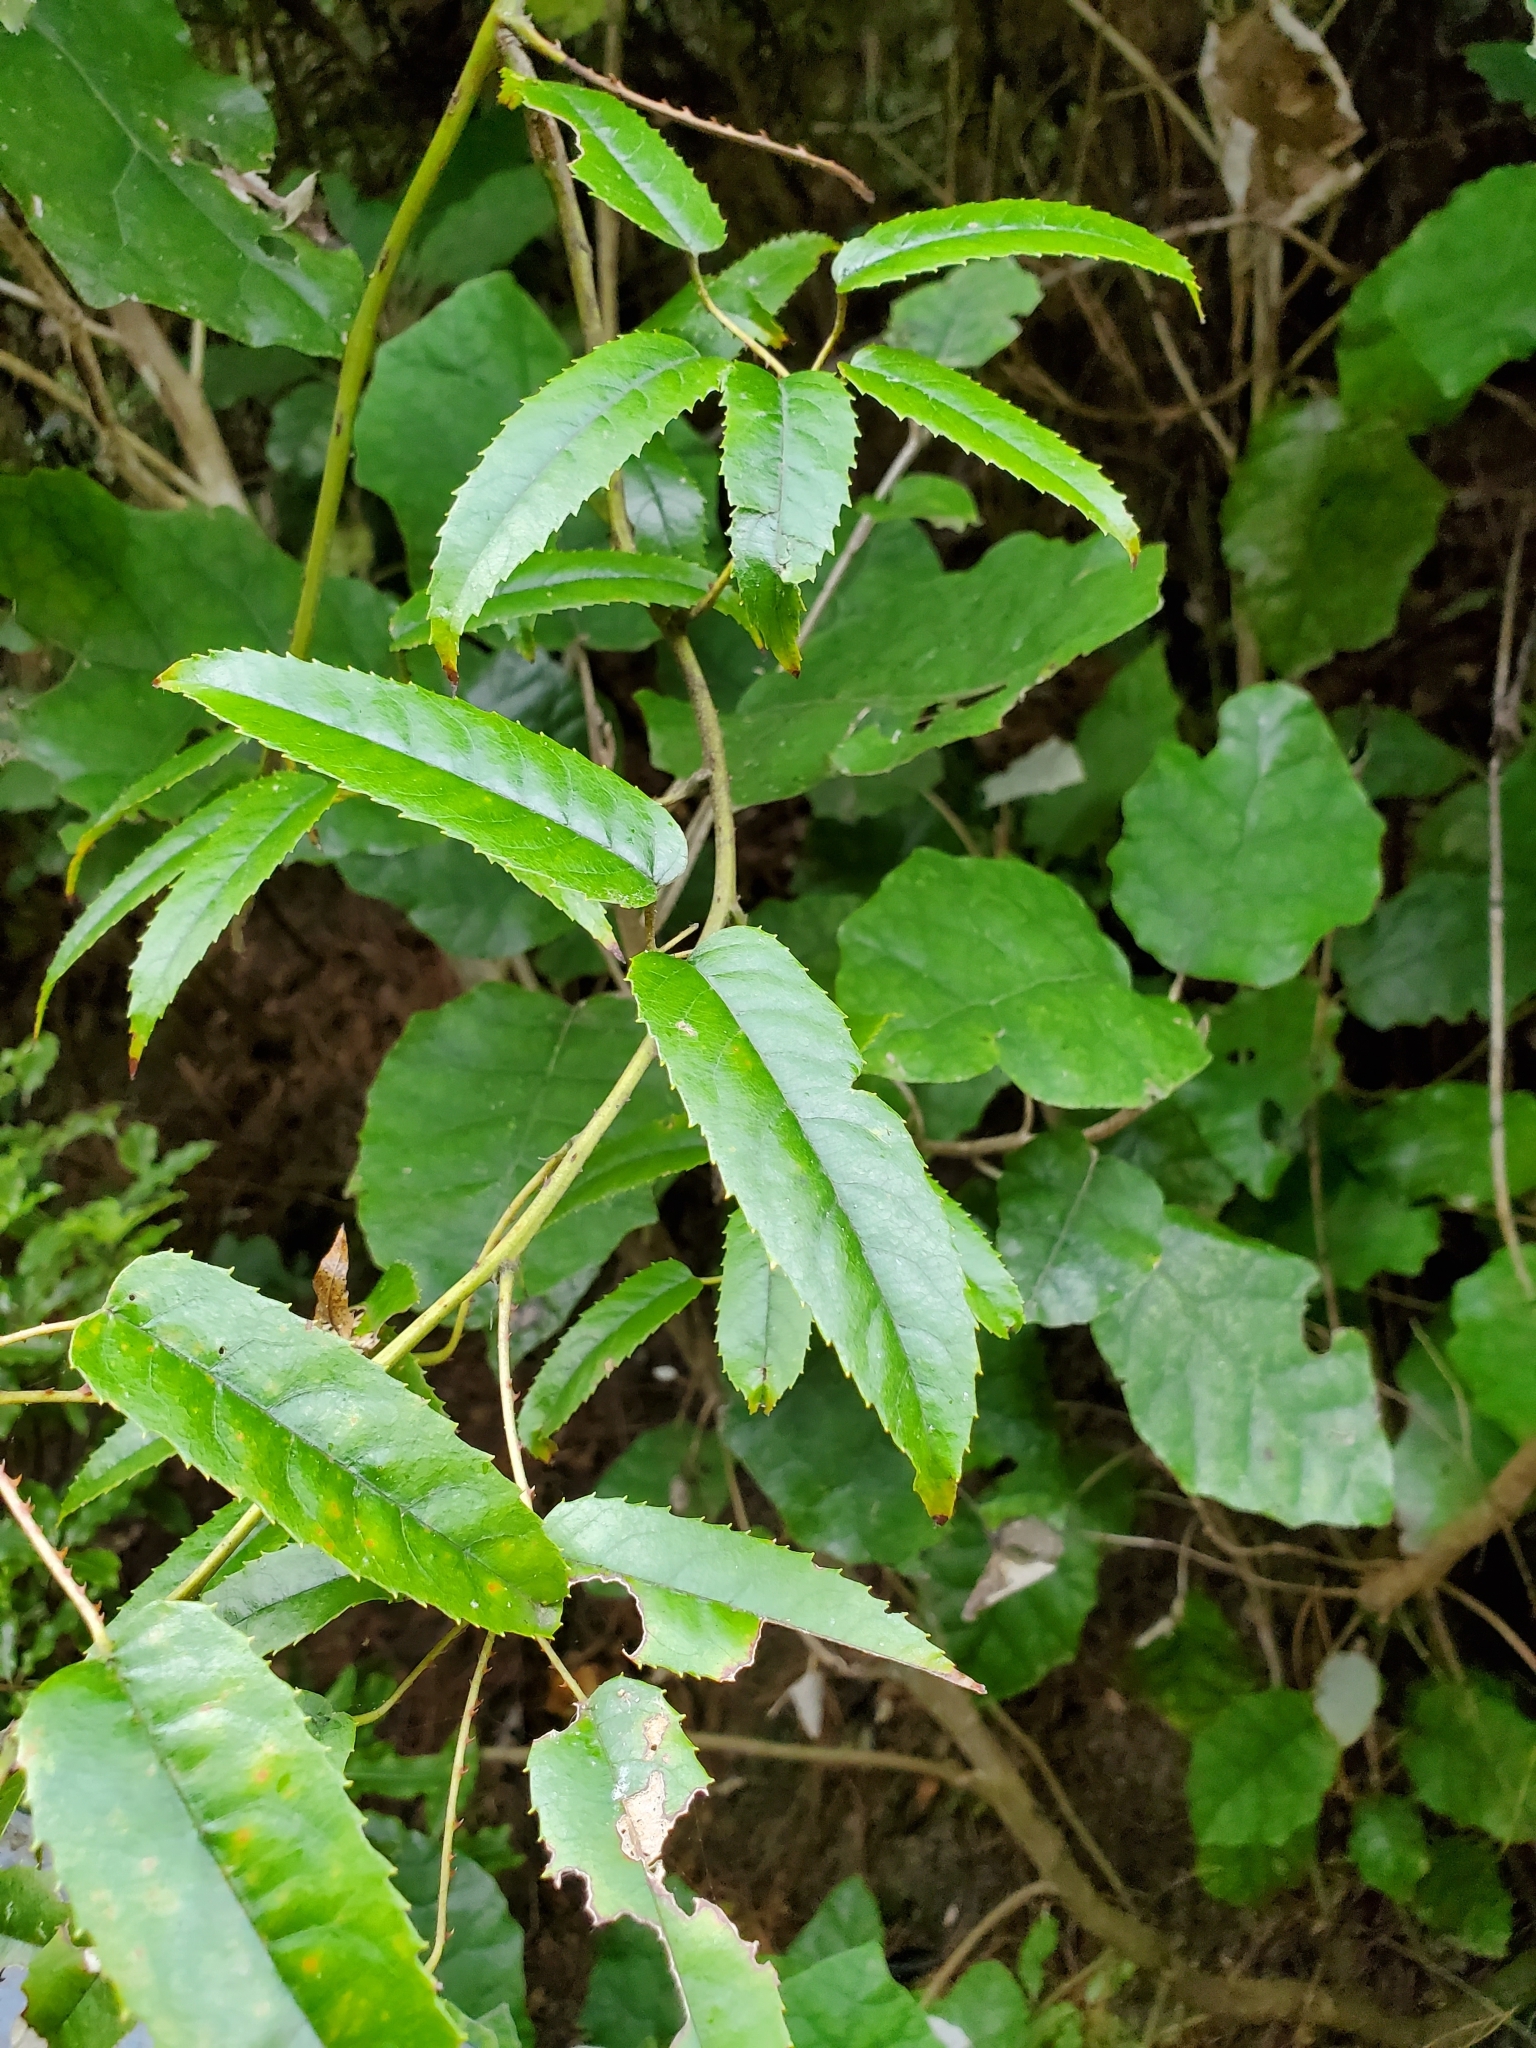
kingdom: Plantae
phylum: Tracheophyta
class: Magnoliopsida
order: Rosales
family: Rosaceae
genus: Rubus
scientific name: Rubus cissoides
